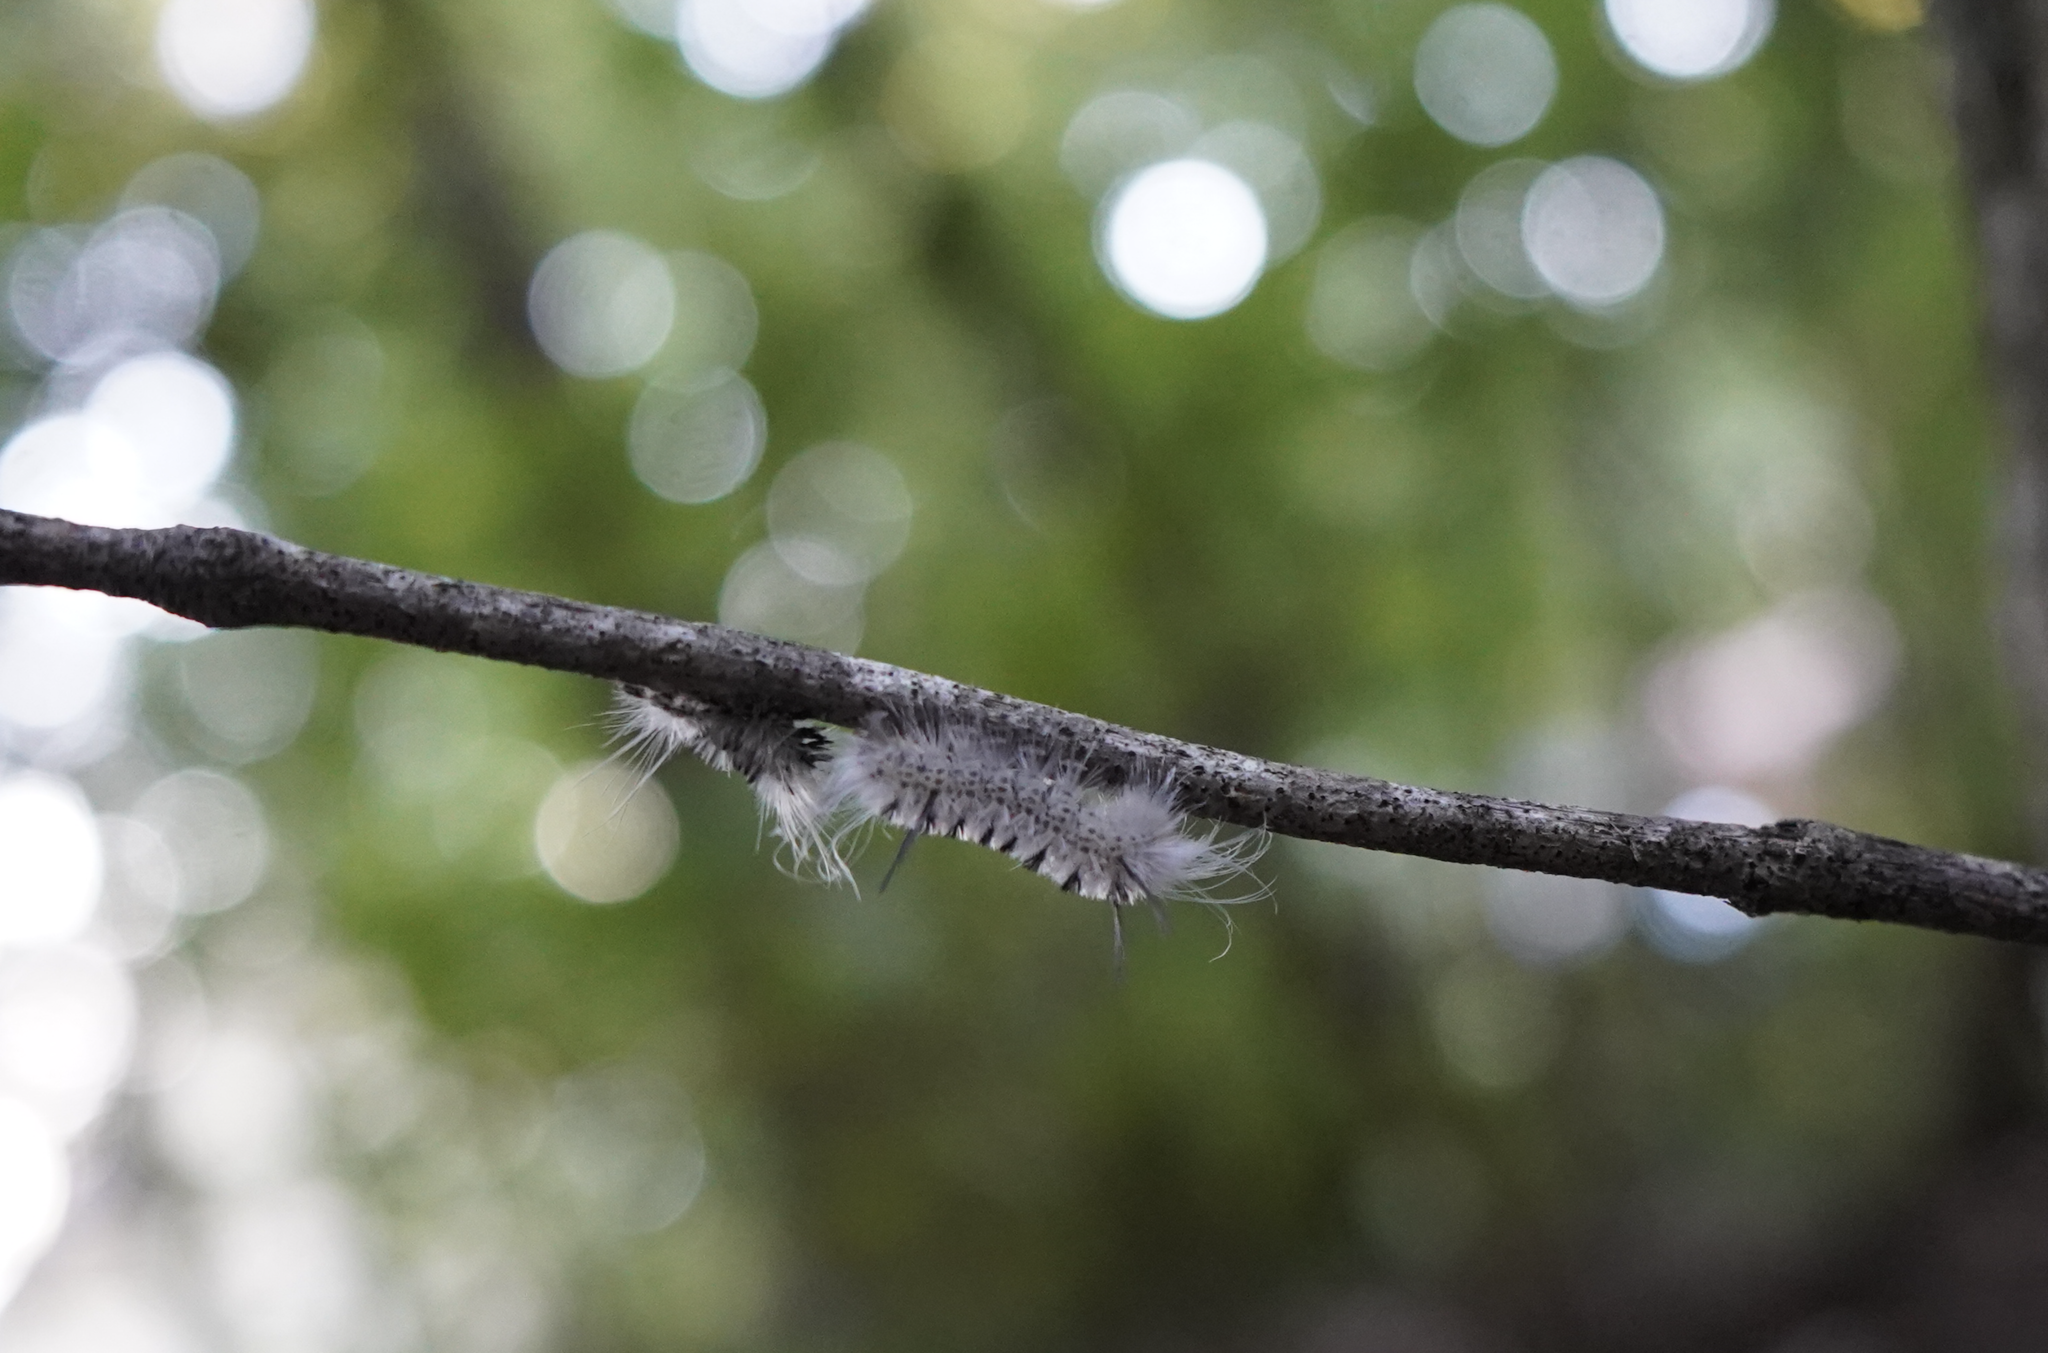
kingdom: Animalia
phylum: Arthropoda
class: Insecta
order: Lepidoptera
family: Erebidae
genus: Lophocampa
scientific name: Lophocampa caryae
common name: Hickory tussock moth
